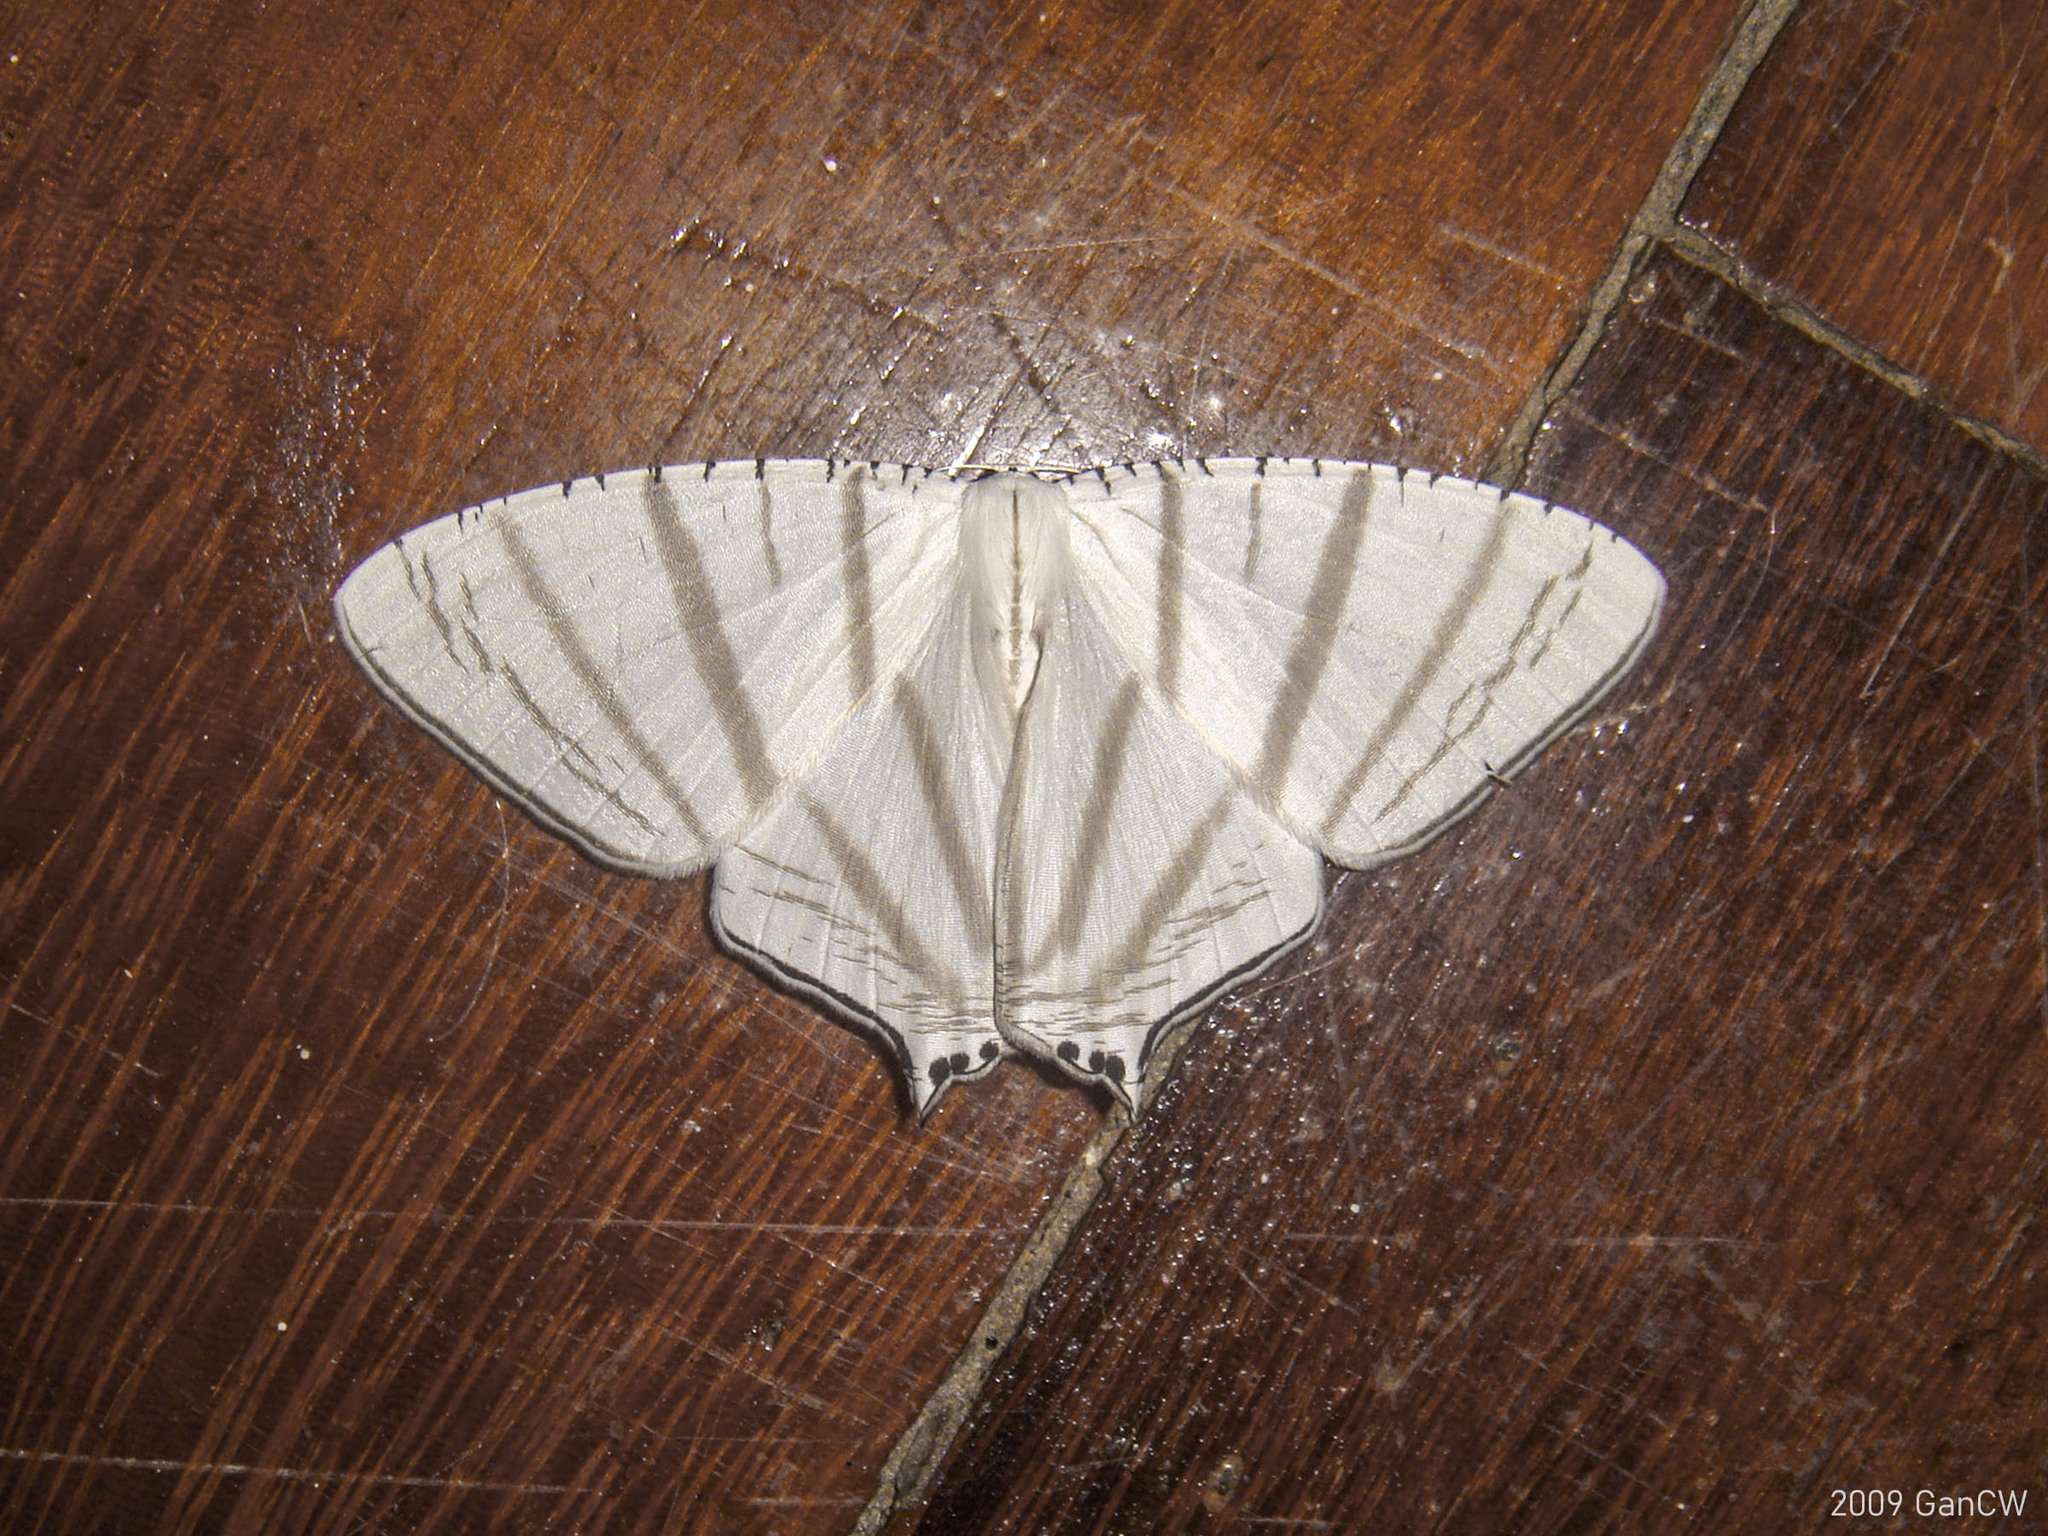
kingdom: Animalia
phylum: Arthropoda
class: Insecta
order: Lepidoptera
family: Uraniidae
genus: Urapteroides
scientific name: Urapteroides astheniata
